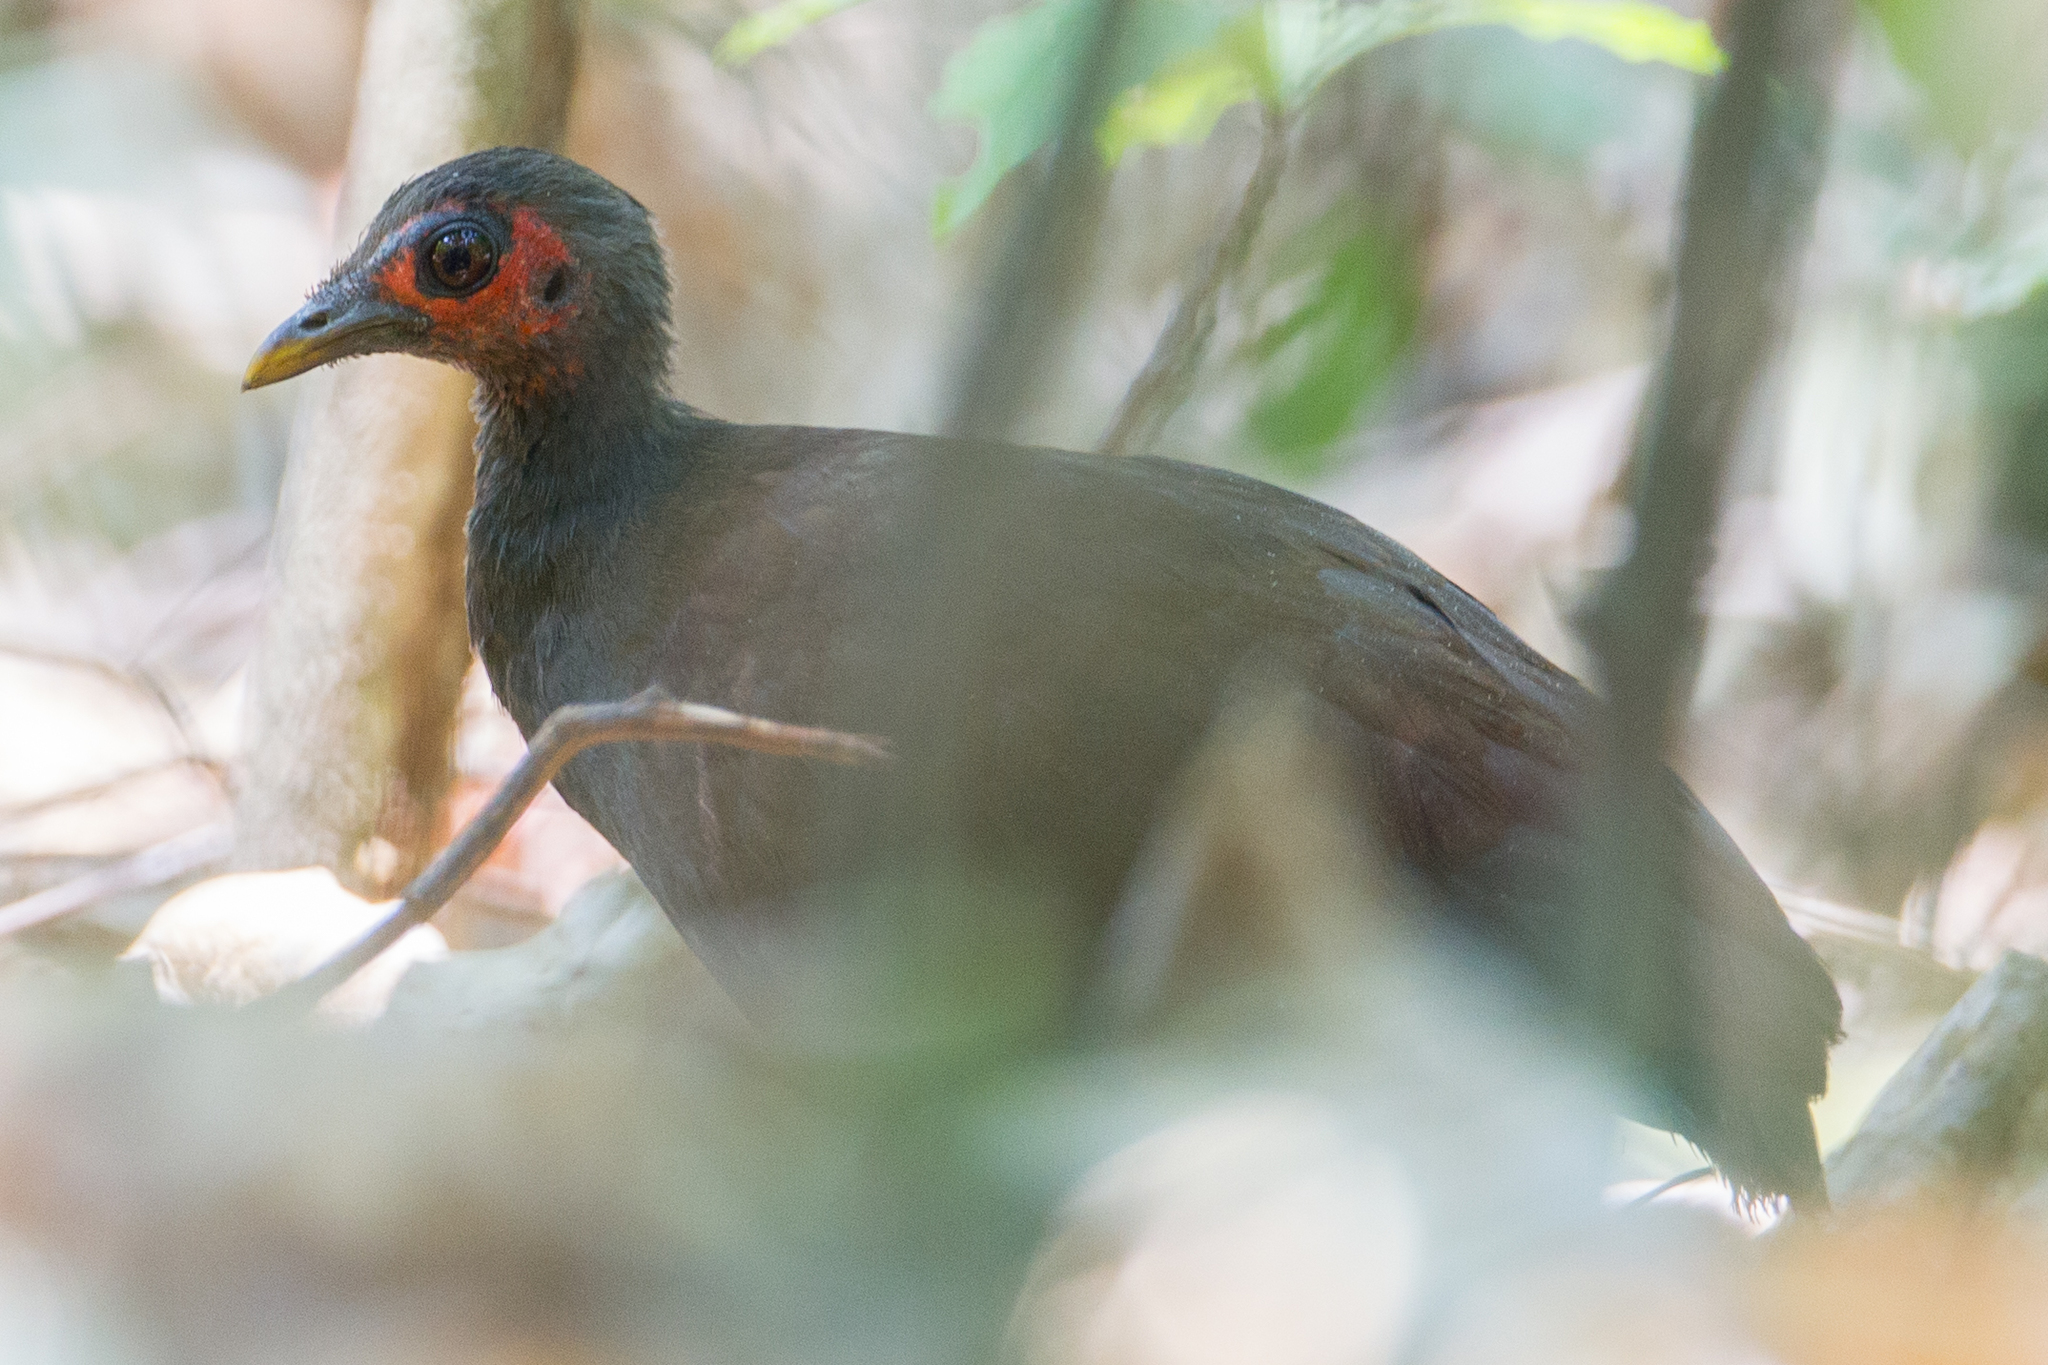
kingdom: Animalia
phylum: Chordata
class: Aves
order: Galliformes
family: Megapodiidae
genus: Megapodius
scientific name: Megapodius cumingii
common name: Philippine megapode
